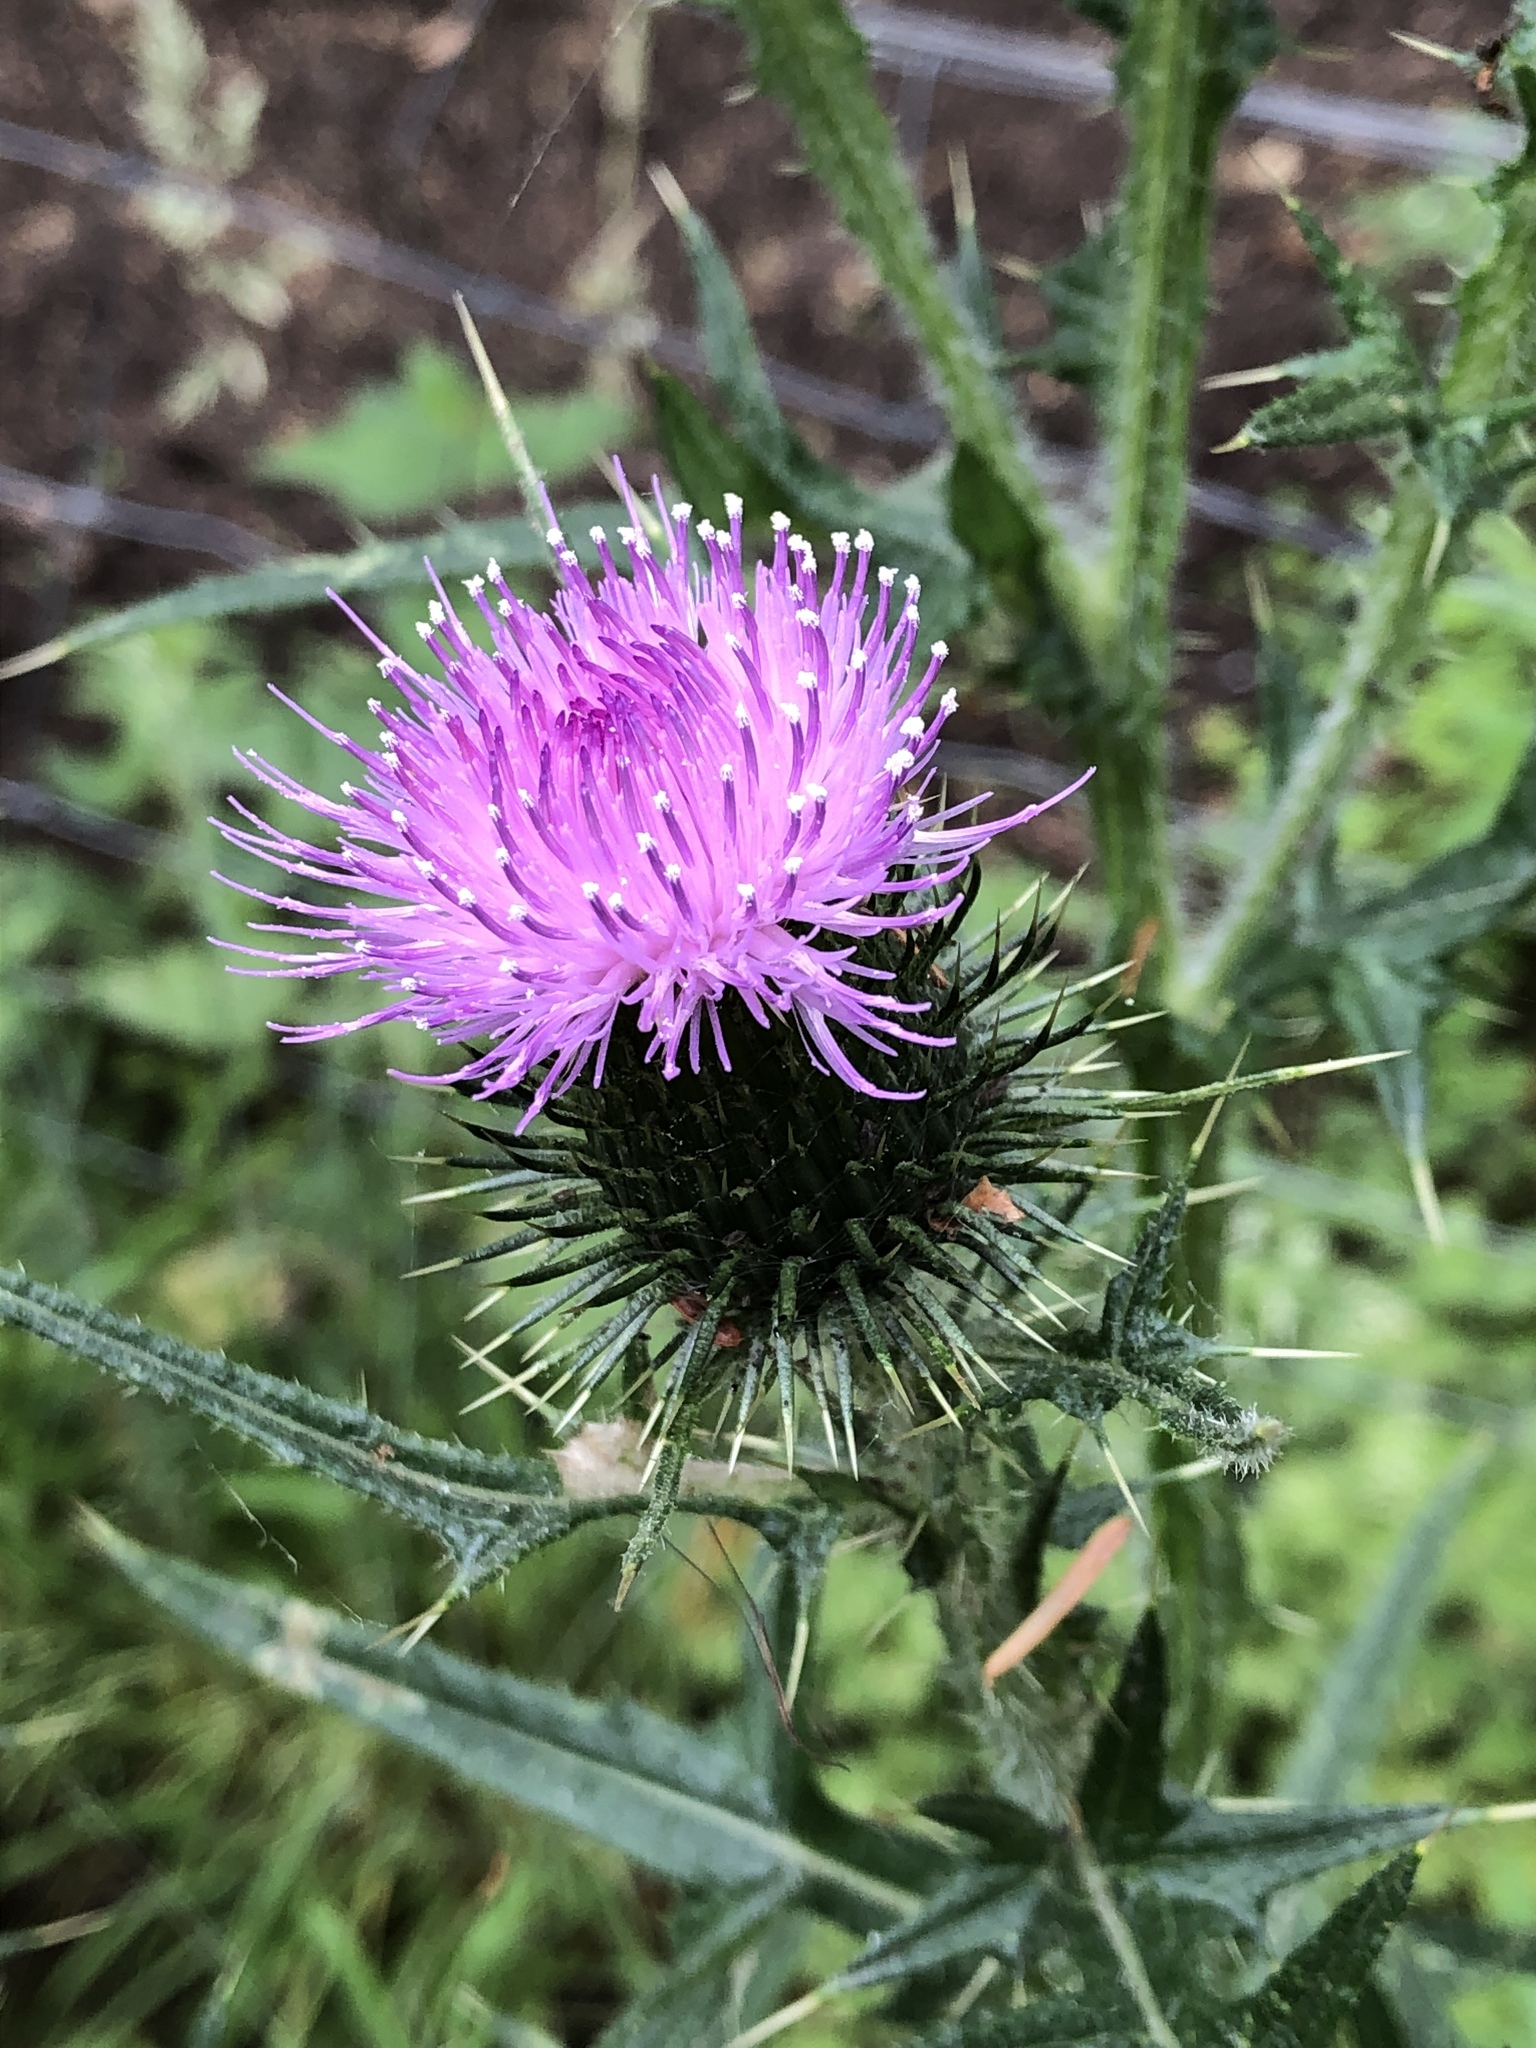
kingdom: Plantae
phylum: Tracheophyta
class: Magnoliopsida
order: Asterales
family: Asteraceae
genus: Cirsium
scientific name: Cirsium vulgare
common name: Bull thistle
